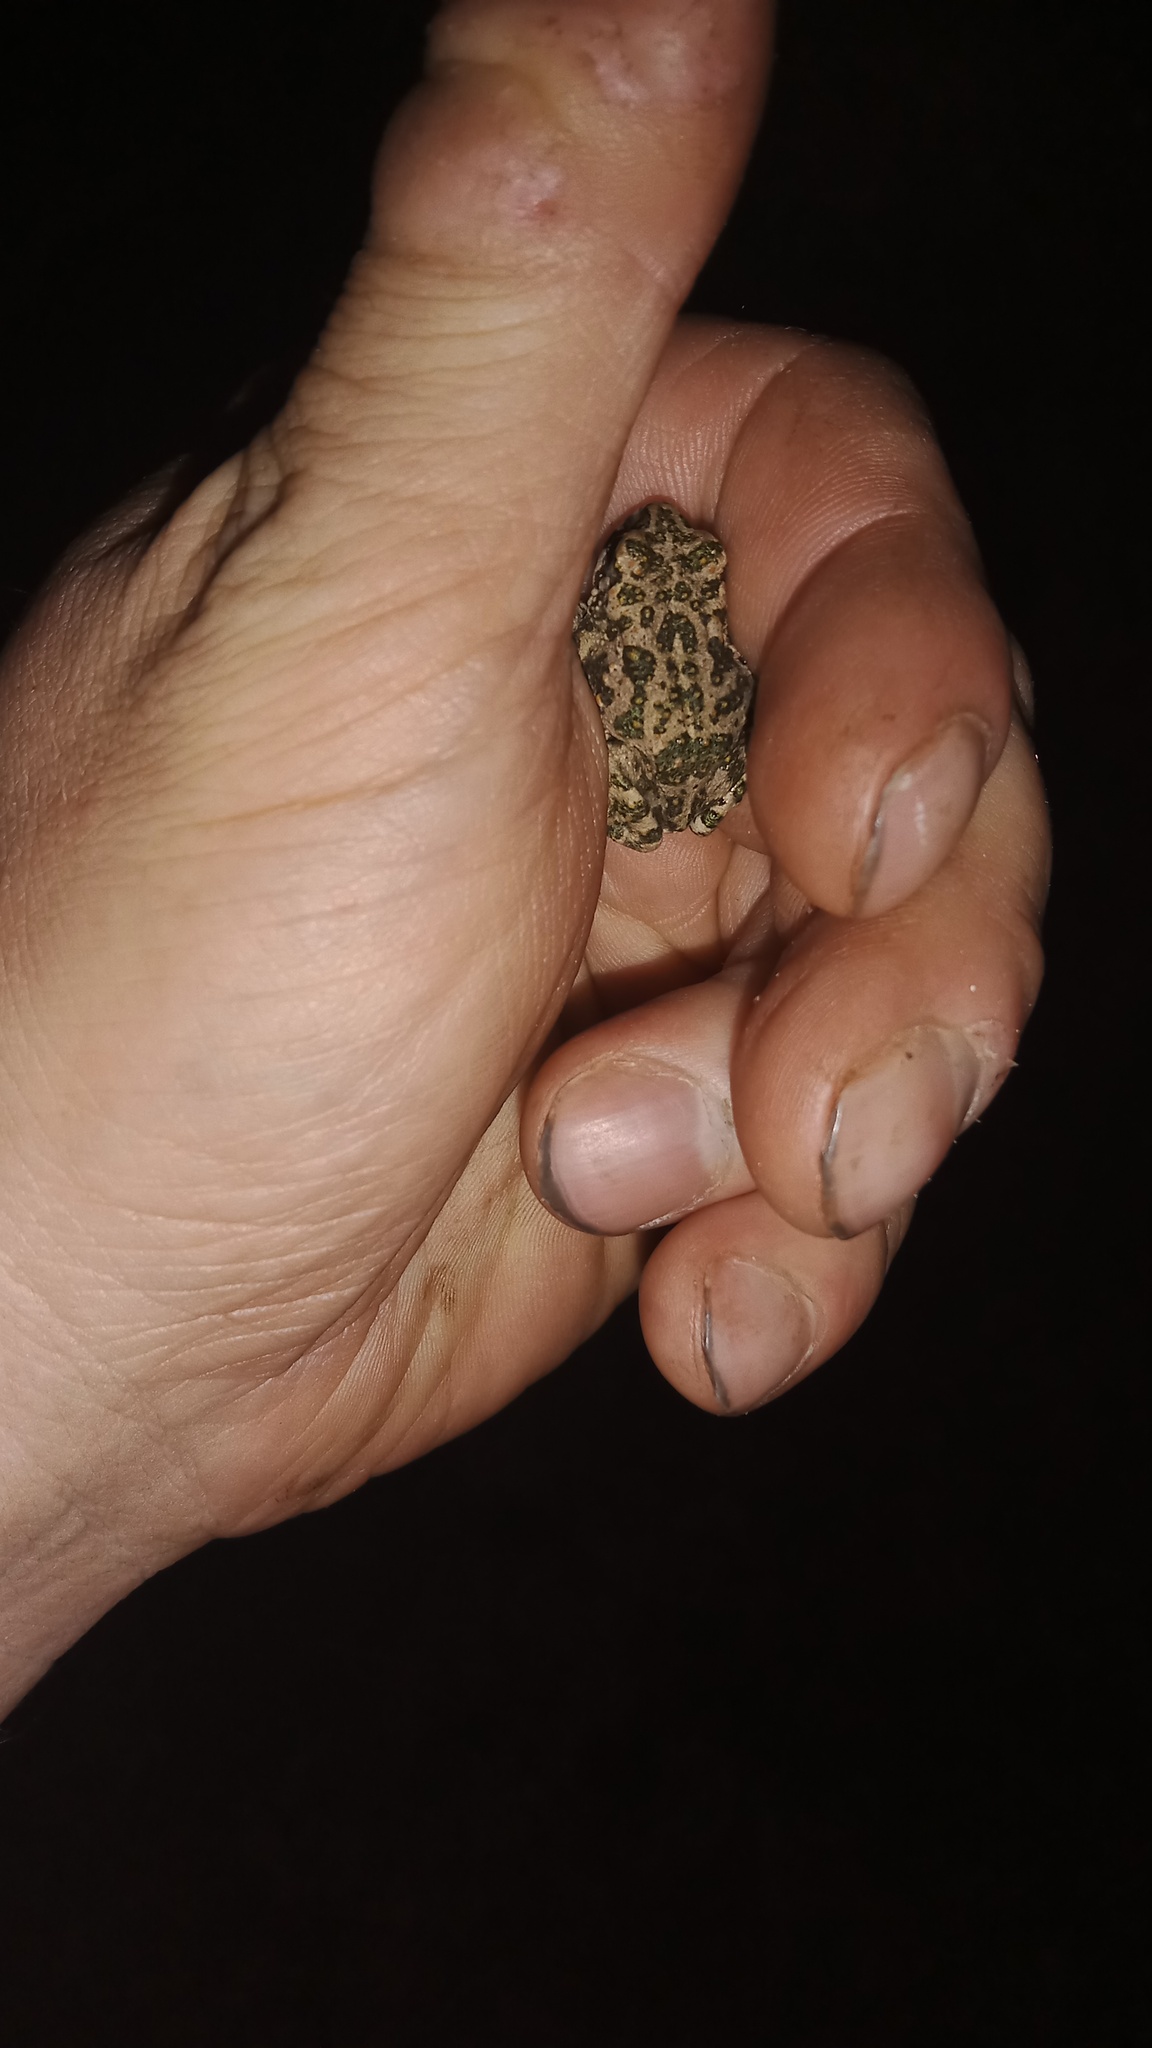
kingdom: Animalia
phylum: Chordata
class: Amphibia
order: Anura
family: Bufonidae
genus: Bufotes
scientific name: Bufotes viridis
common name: European green toad
